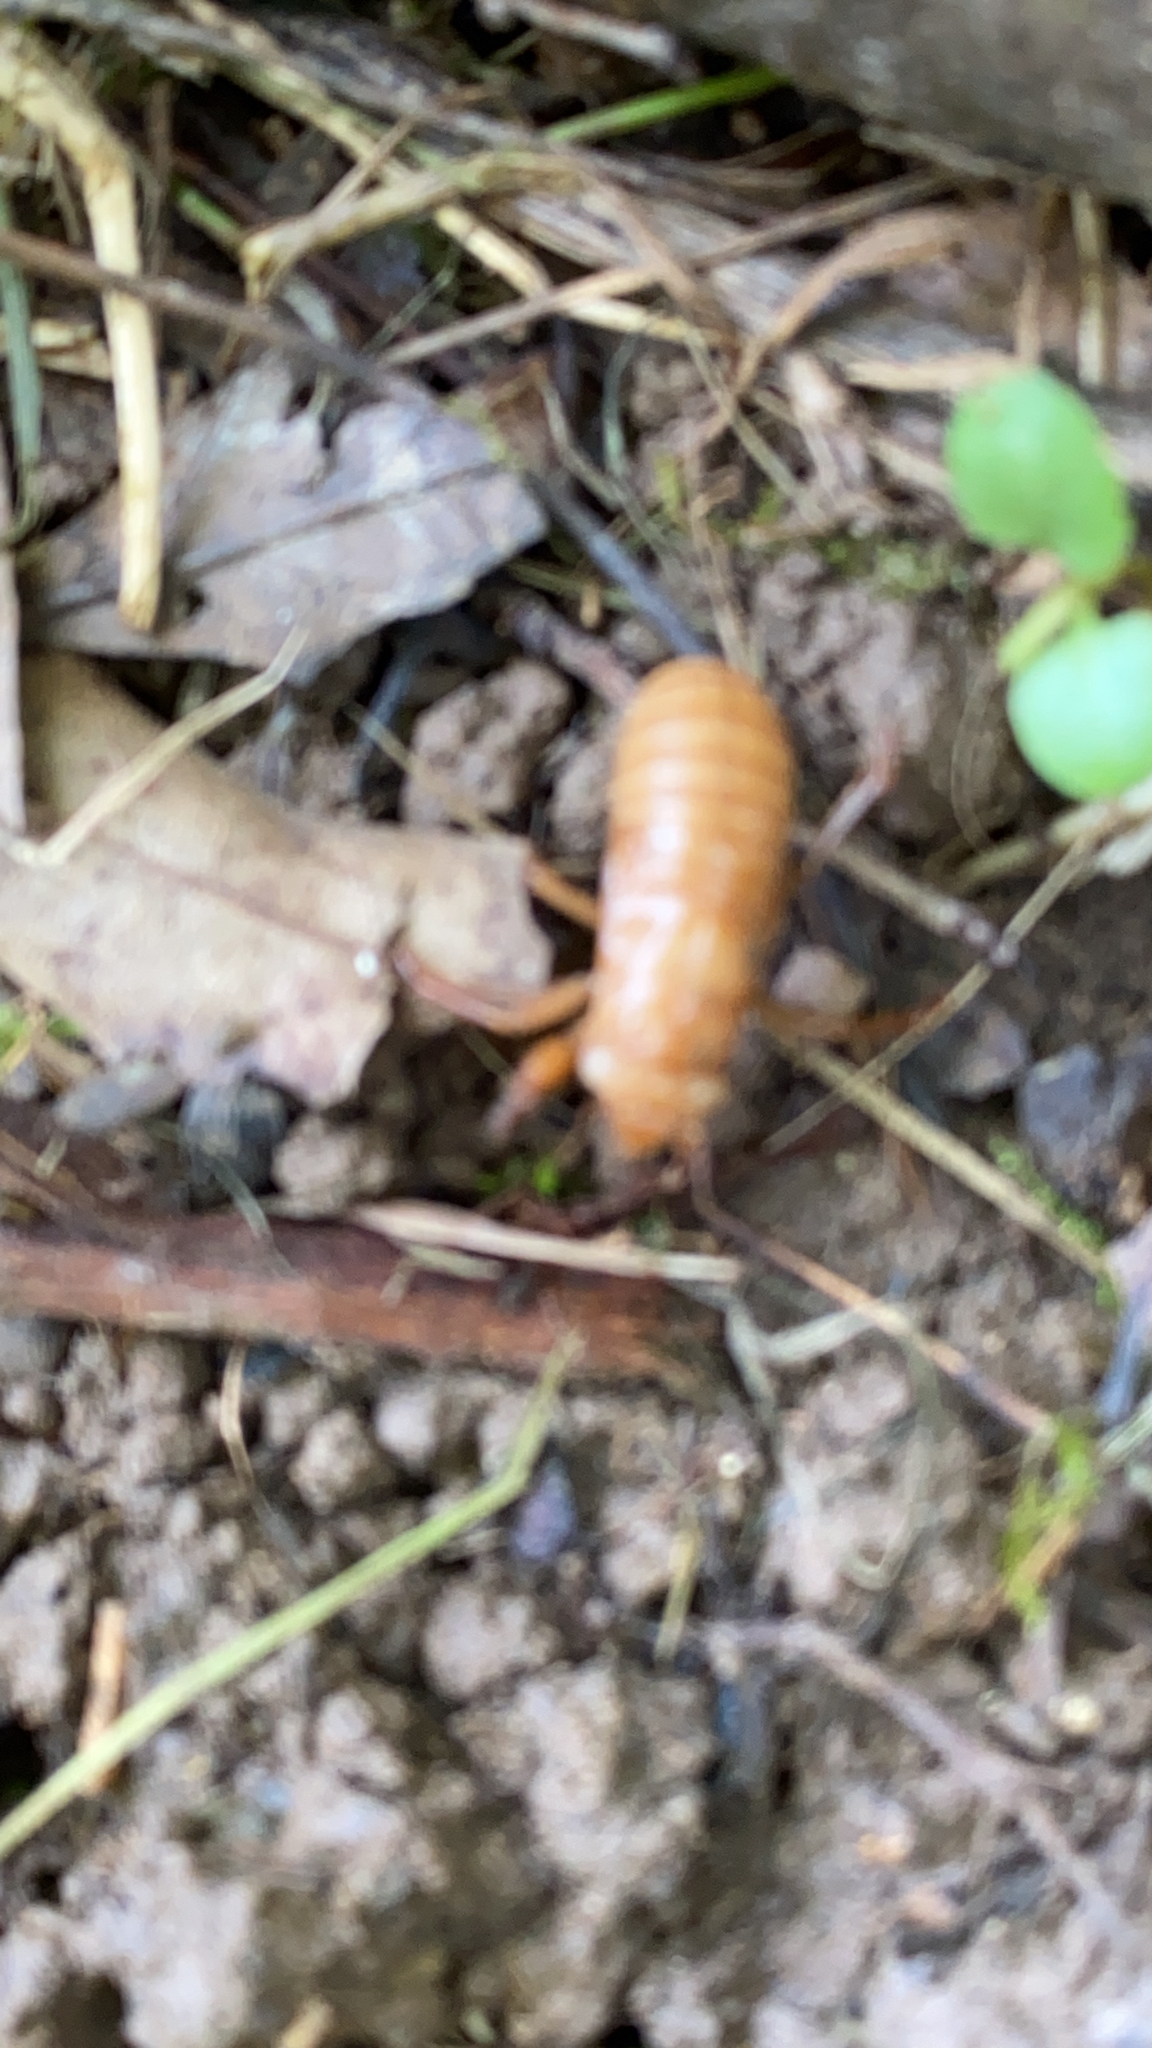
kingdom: Animalia
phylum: Arthropoda
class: Insecta
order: Hemiptera
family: Cicadidae
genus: Magicicada
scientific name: Magicicada
